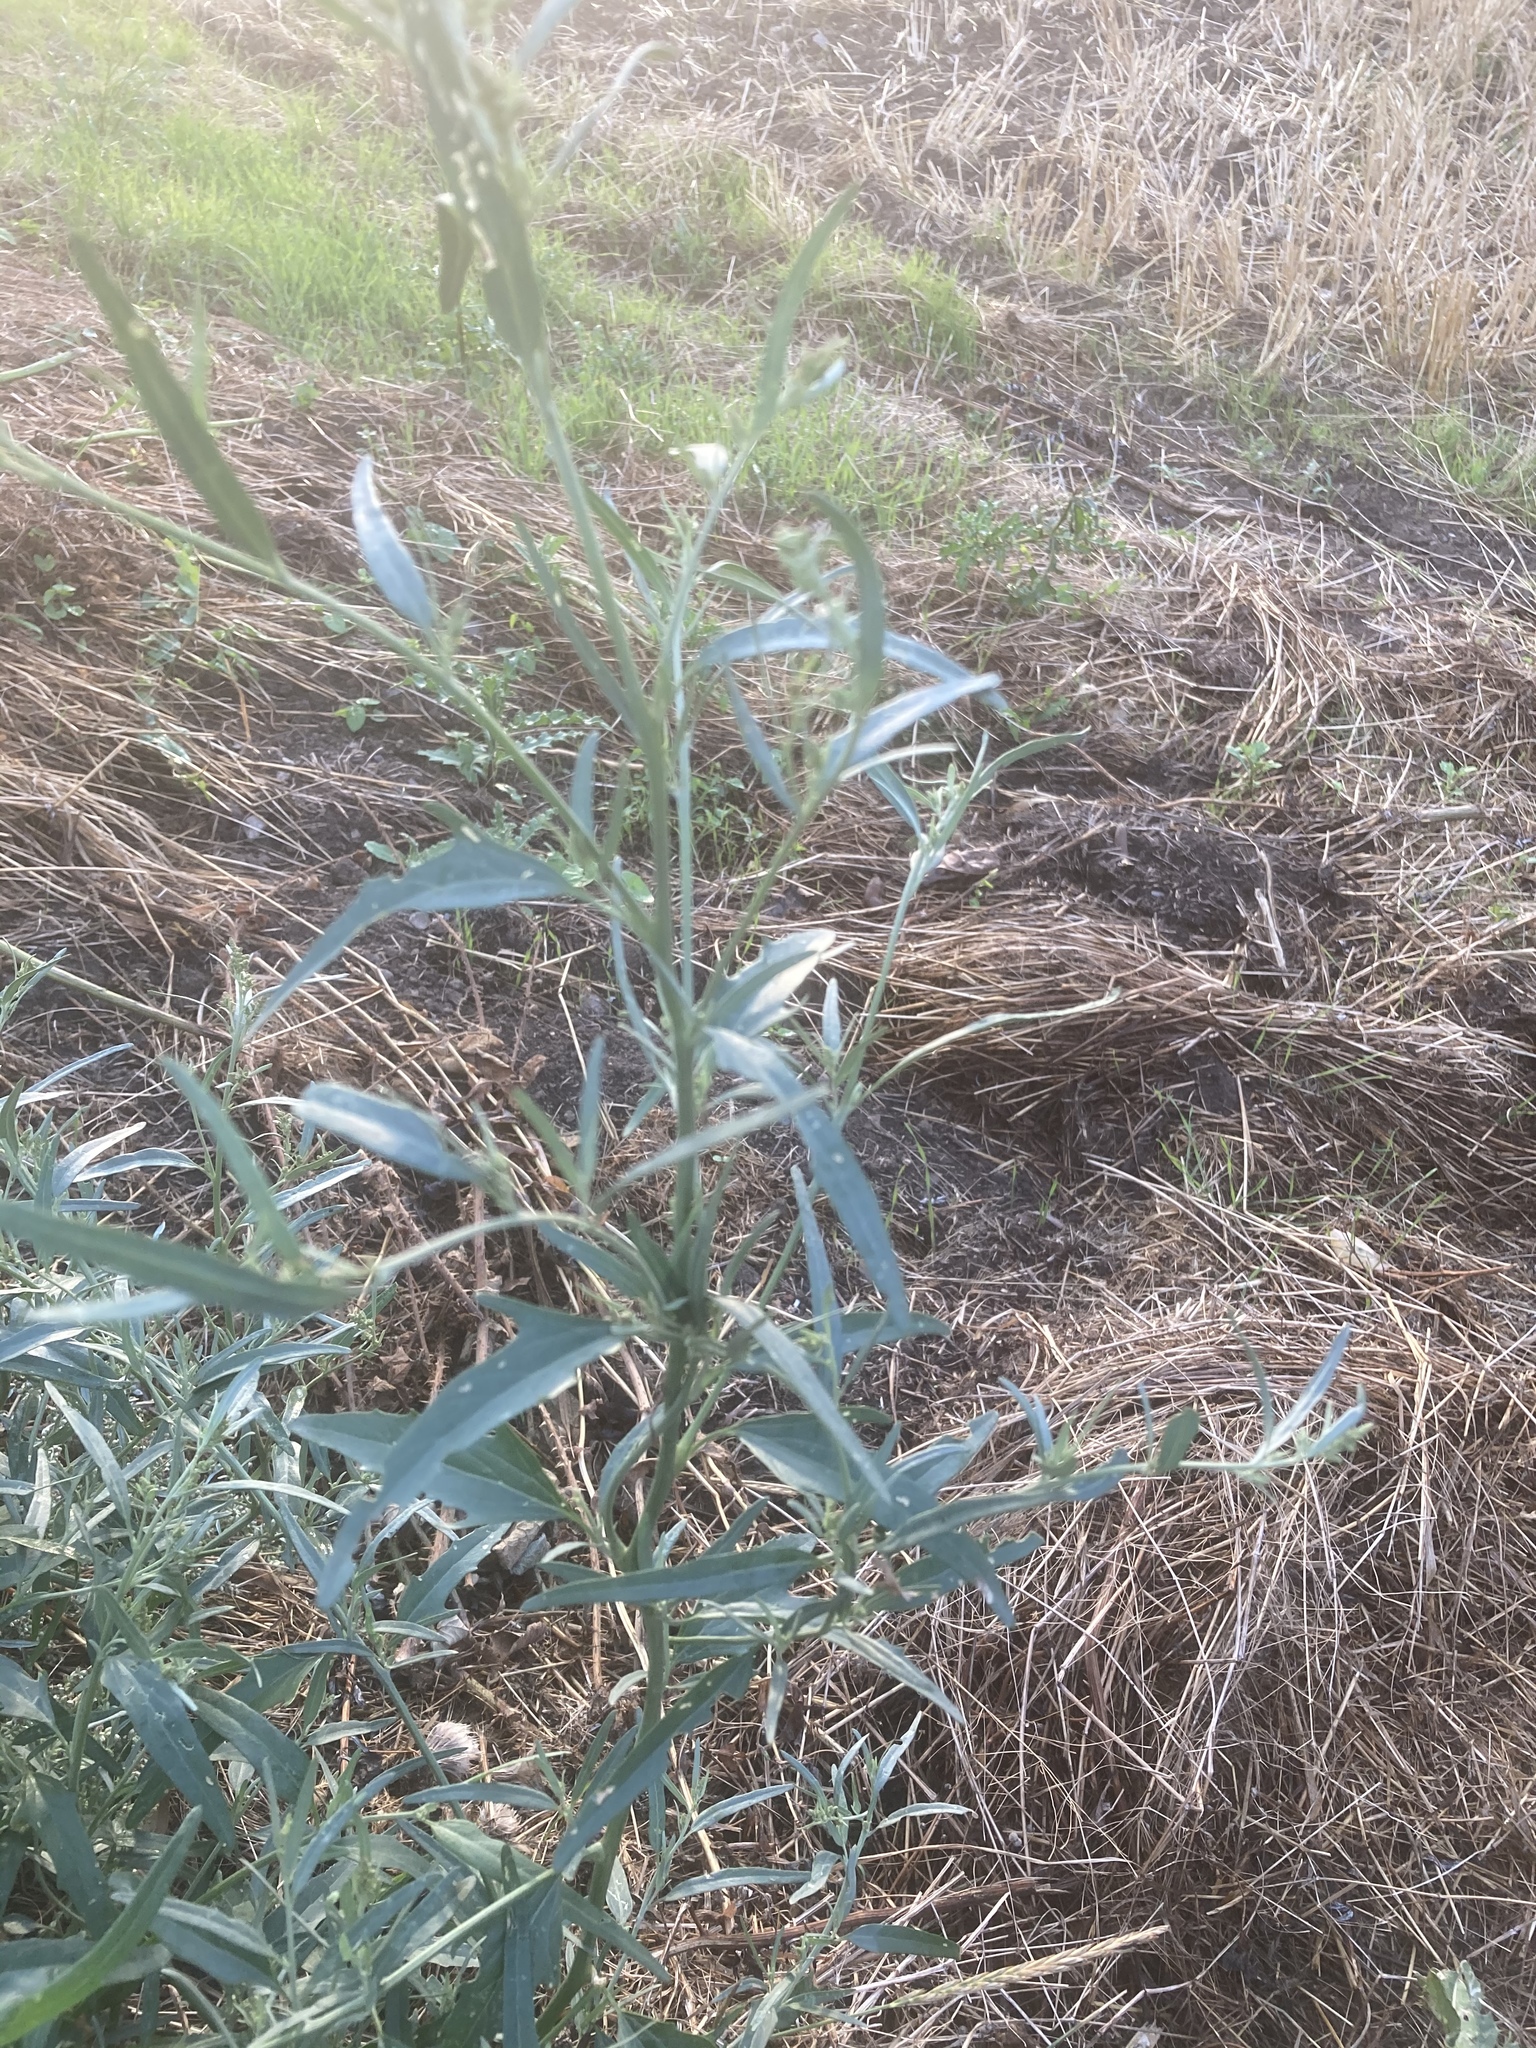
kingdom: Plantae
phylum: Tracheophyta
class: Magnoliopsida
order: Caryophyllales
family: Amaranthaceae
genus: Atriplex
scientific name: Atriplex oblongifolia
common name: Oblongleaf orache
